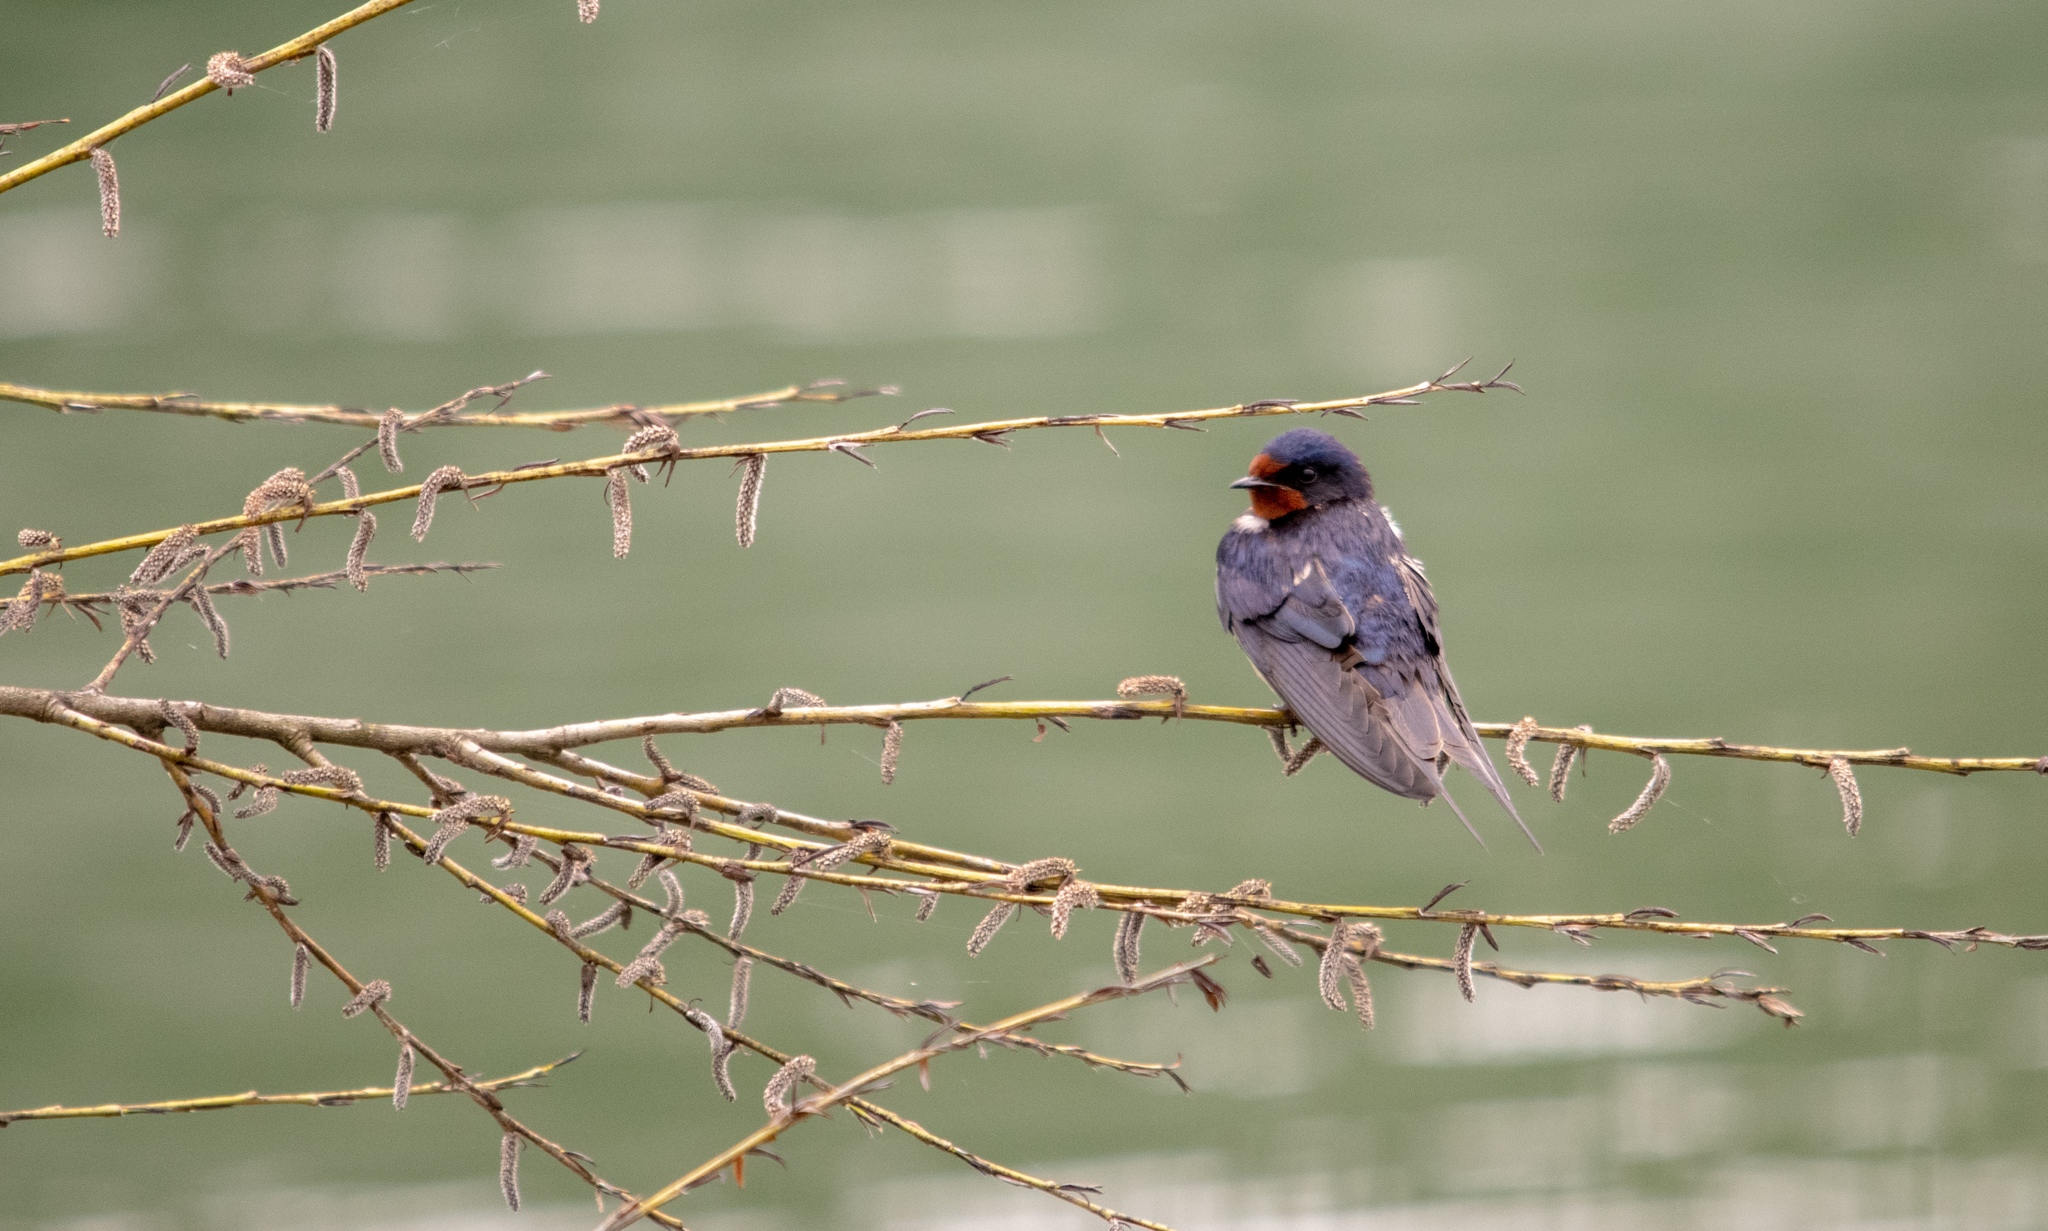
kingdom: Animalia
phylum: Chordata
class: Aves
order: Passeriformes
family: Hirundinidae
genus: Hirundo
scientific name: Hirundo rustica
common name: Barn swallow
